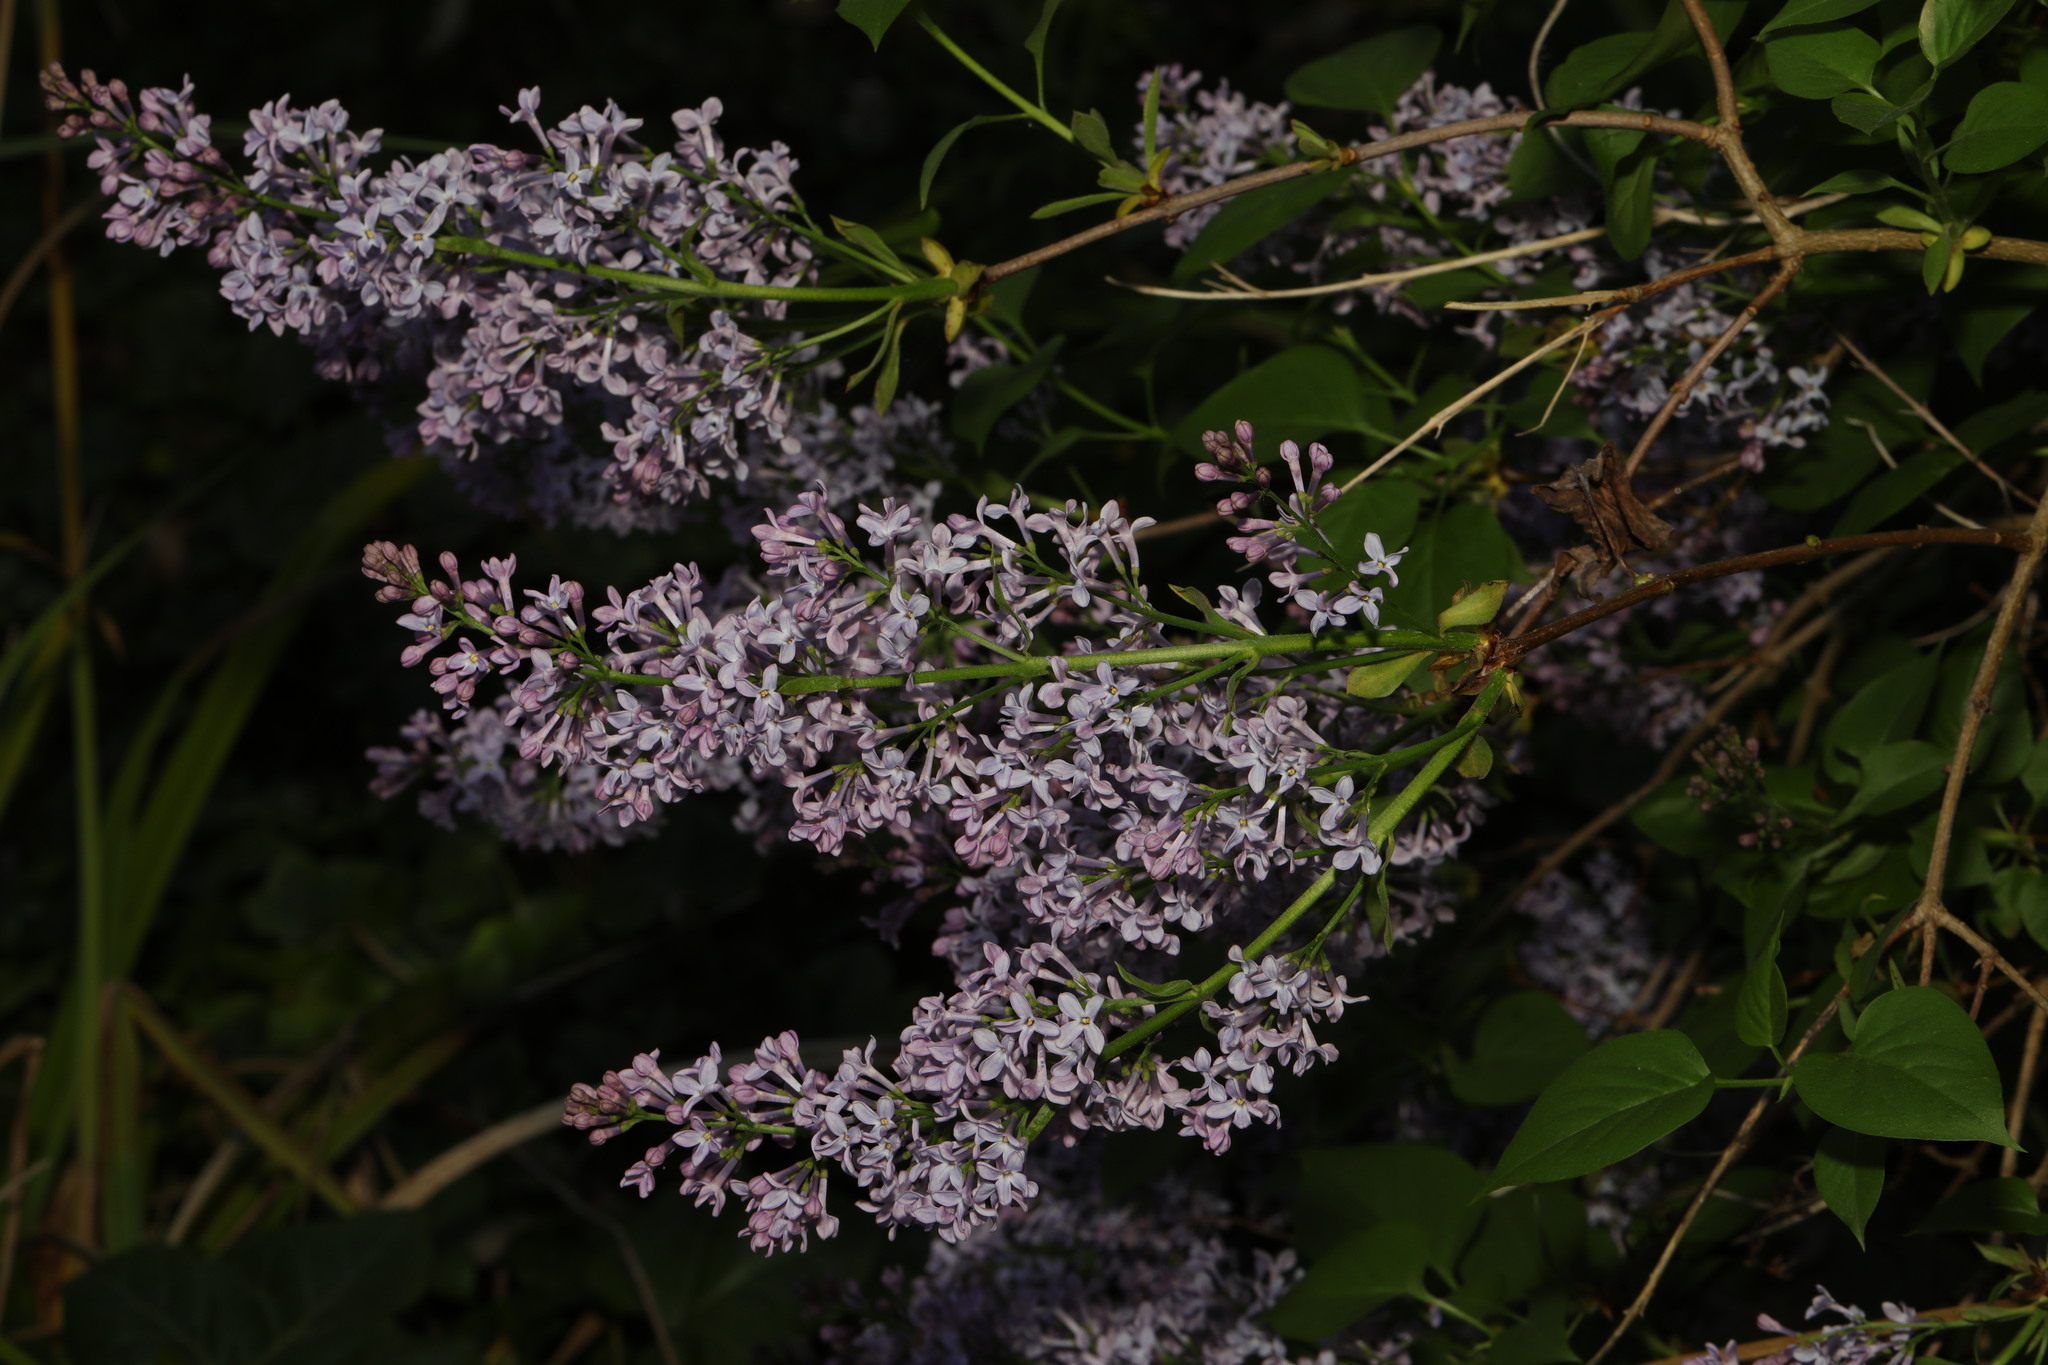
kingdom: Plantae
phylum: Tracheophyta
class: Magnoliopsida
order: Lamiales
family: Oleaceae
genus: Syringa
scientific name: Syringa vulgaris
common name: Common lilac
